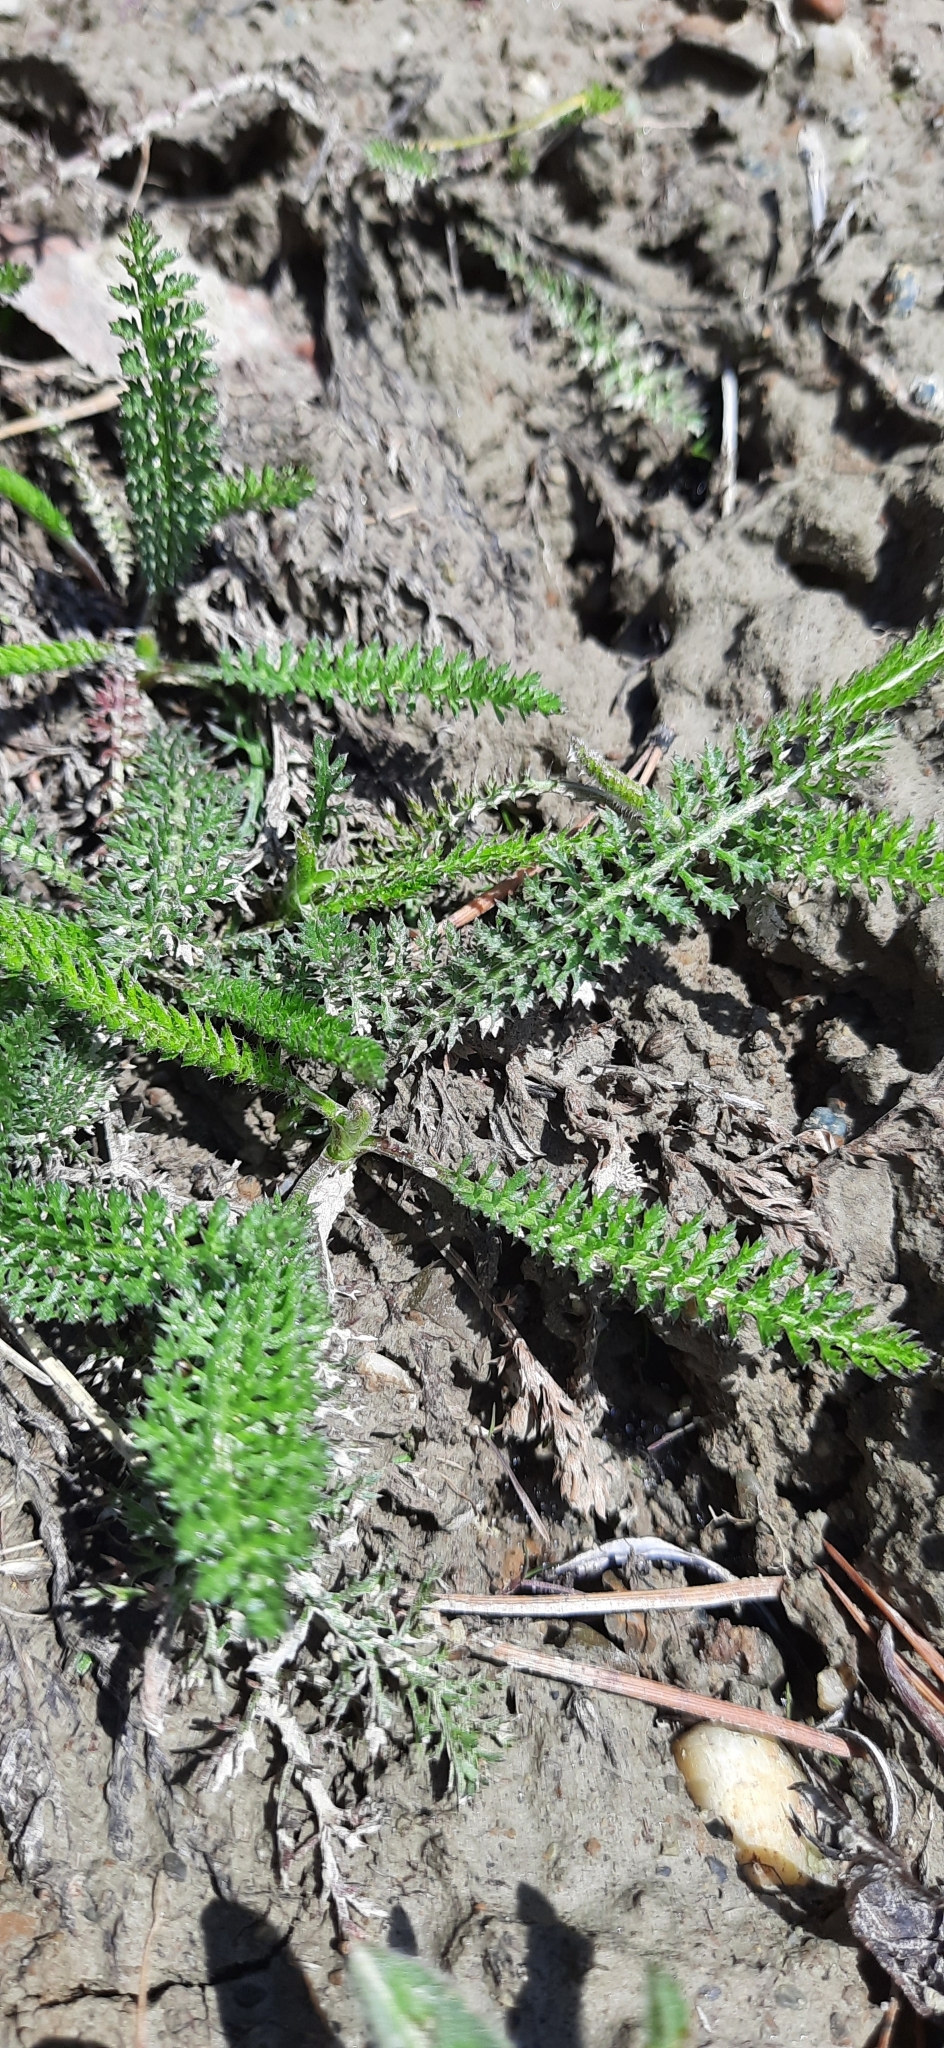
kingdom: Plantae
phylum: Tracheophyta
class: Magnoliopsida
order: Asterales
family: Asteraceae
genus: Achillea
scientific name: Achillea millefolium
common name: Yarrow
